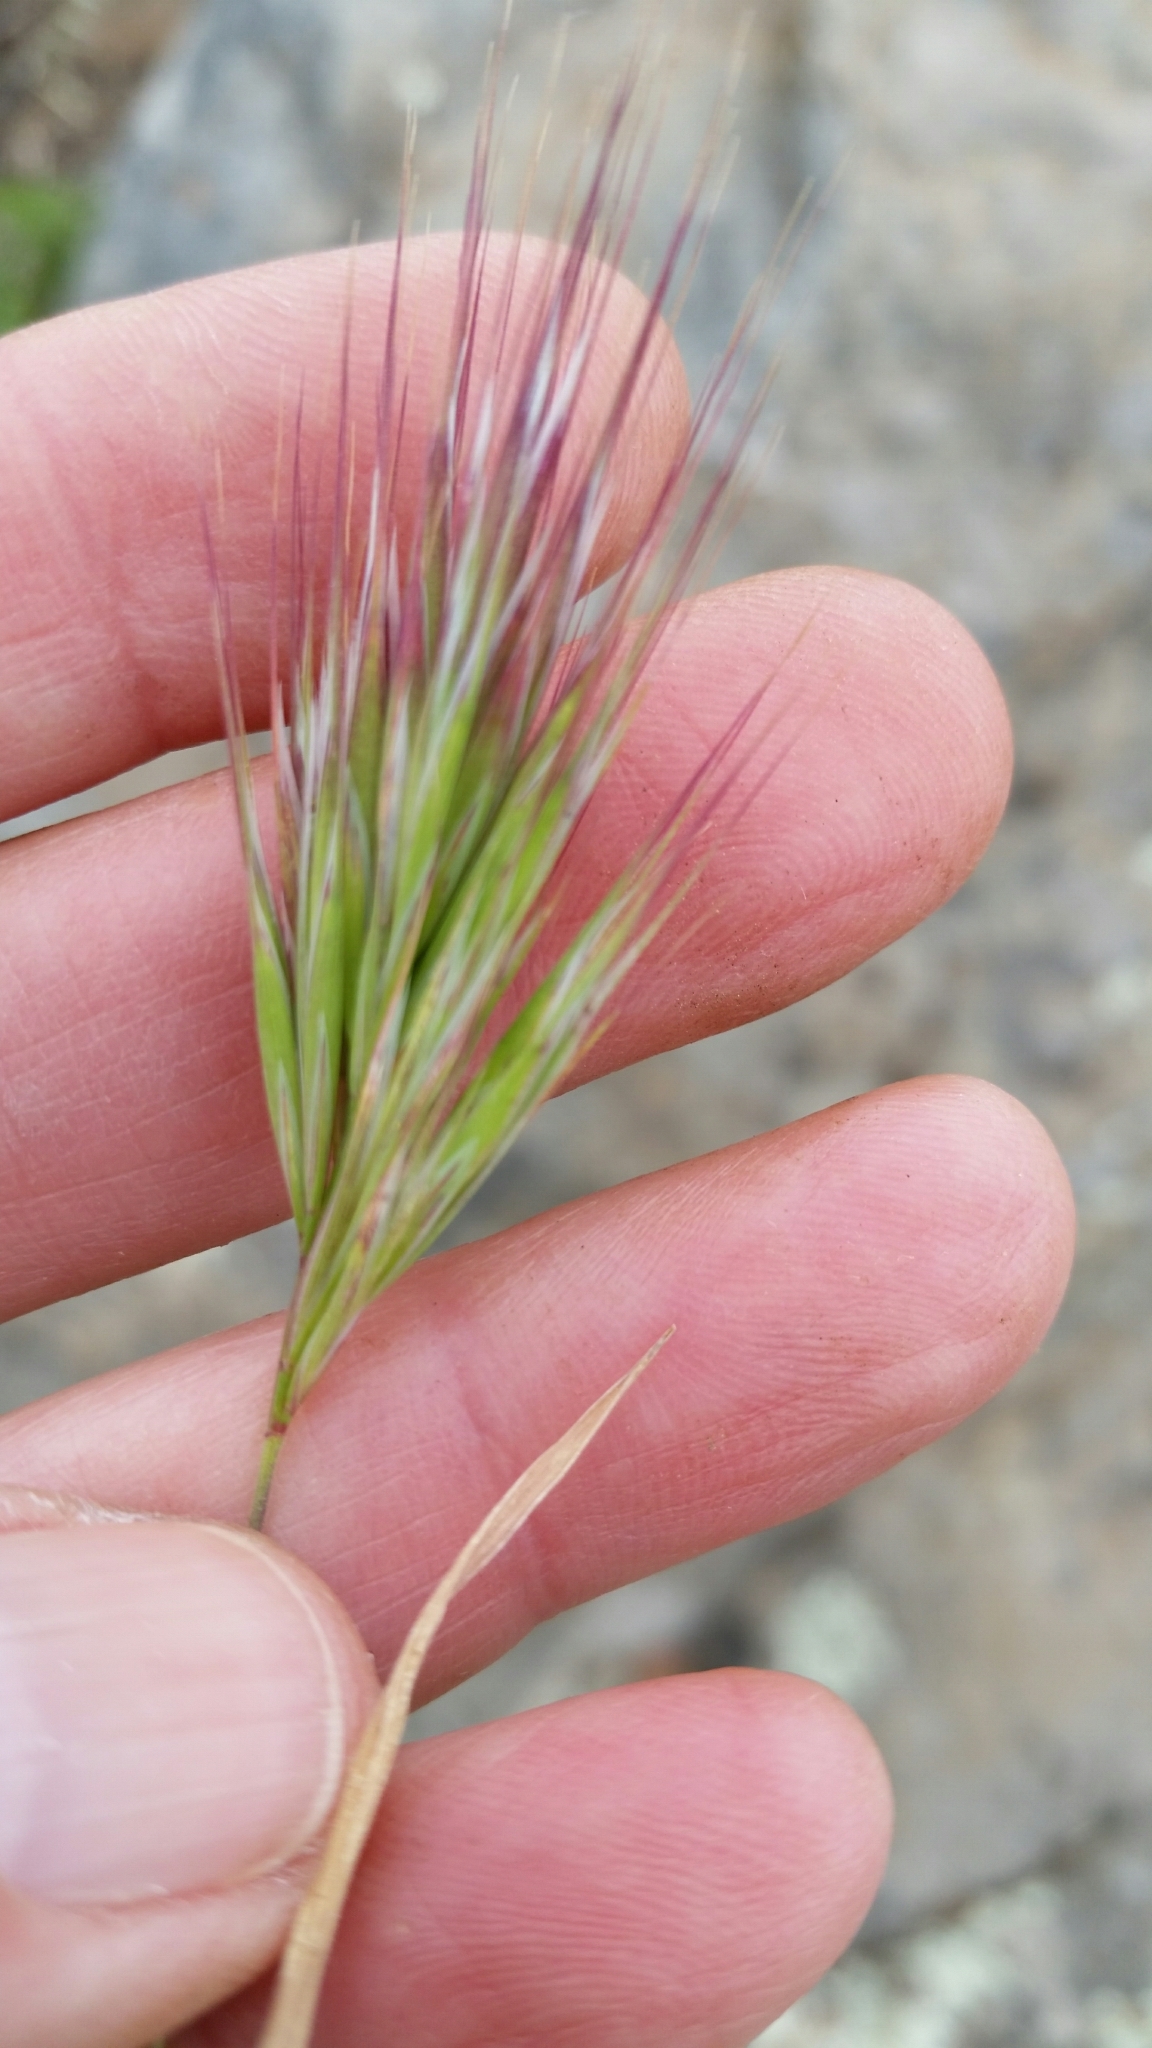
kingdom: Plantae
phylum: Tracheophyta
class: Liliopsida
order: Poales
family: Poaceae
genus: Bromus
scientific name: Bromus rubens
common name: Red brome
